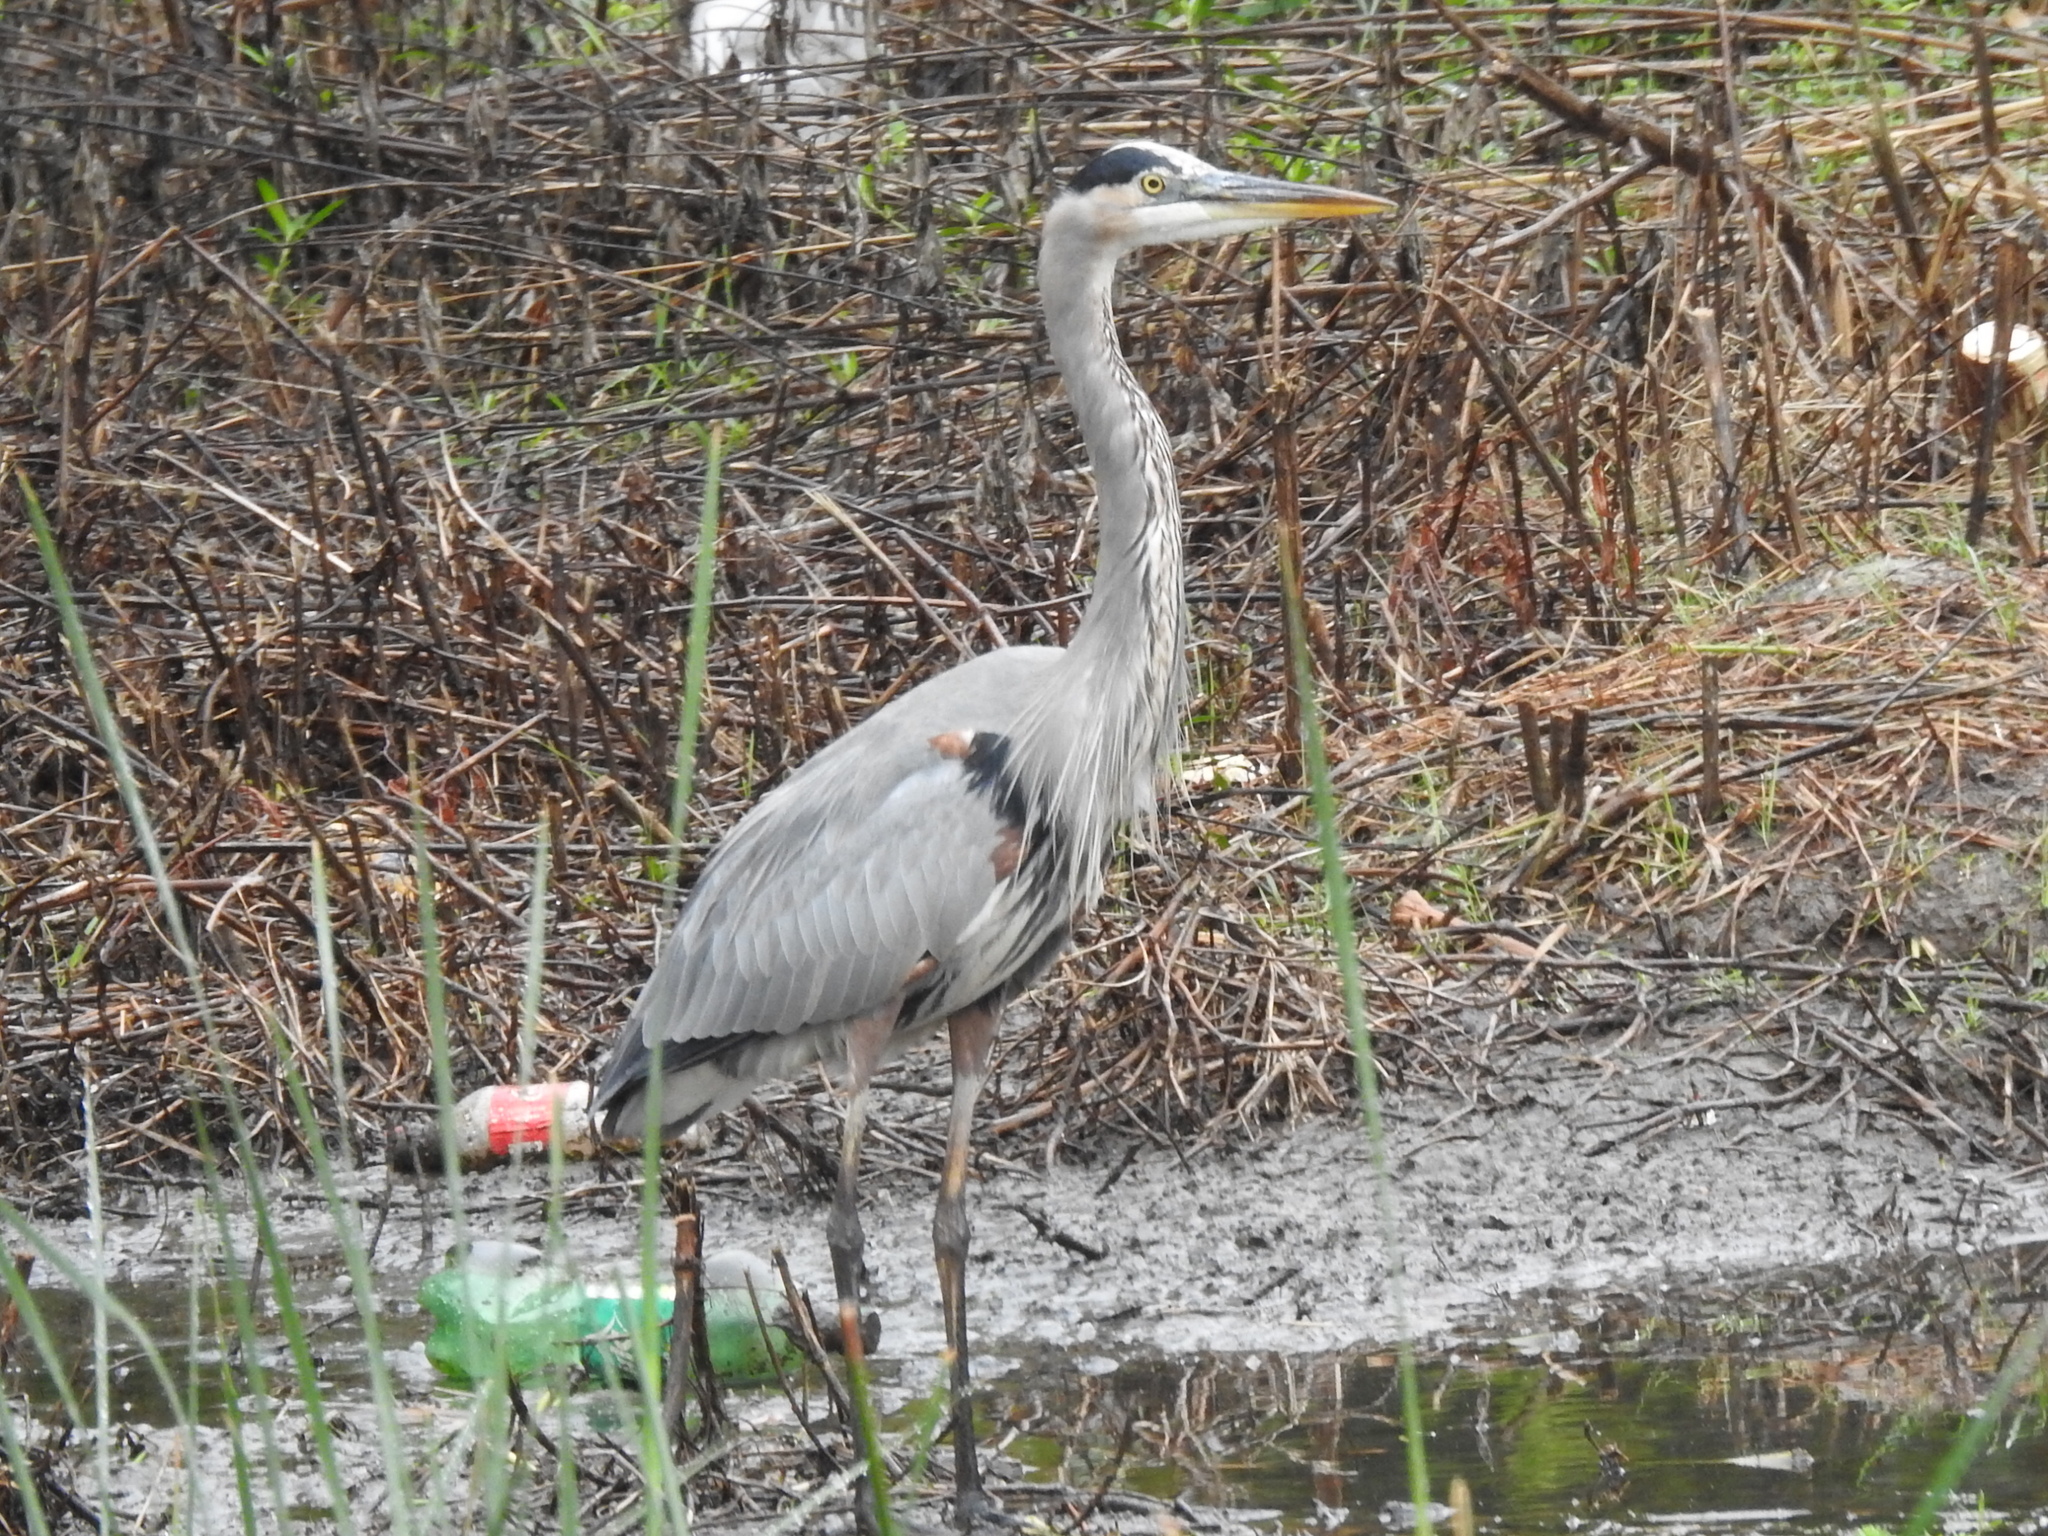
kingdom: Animalia
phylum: Chordata
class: Aves
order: Pelecaniformes
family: Ardeidae
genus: Ardea
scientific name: Ardea herodias
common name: Great blue heron
